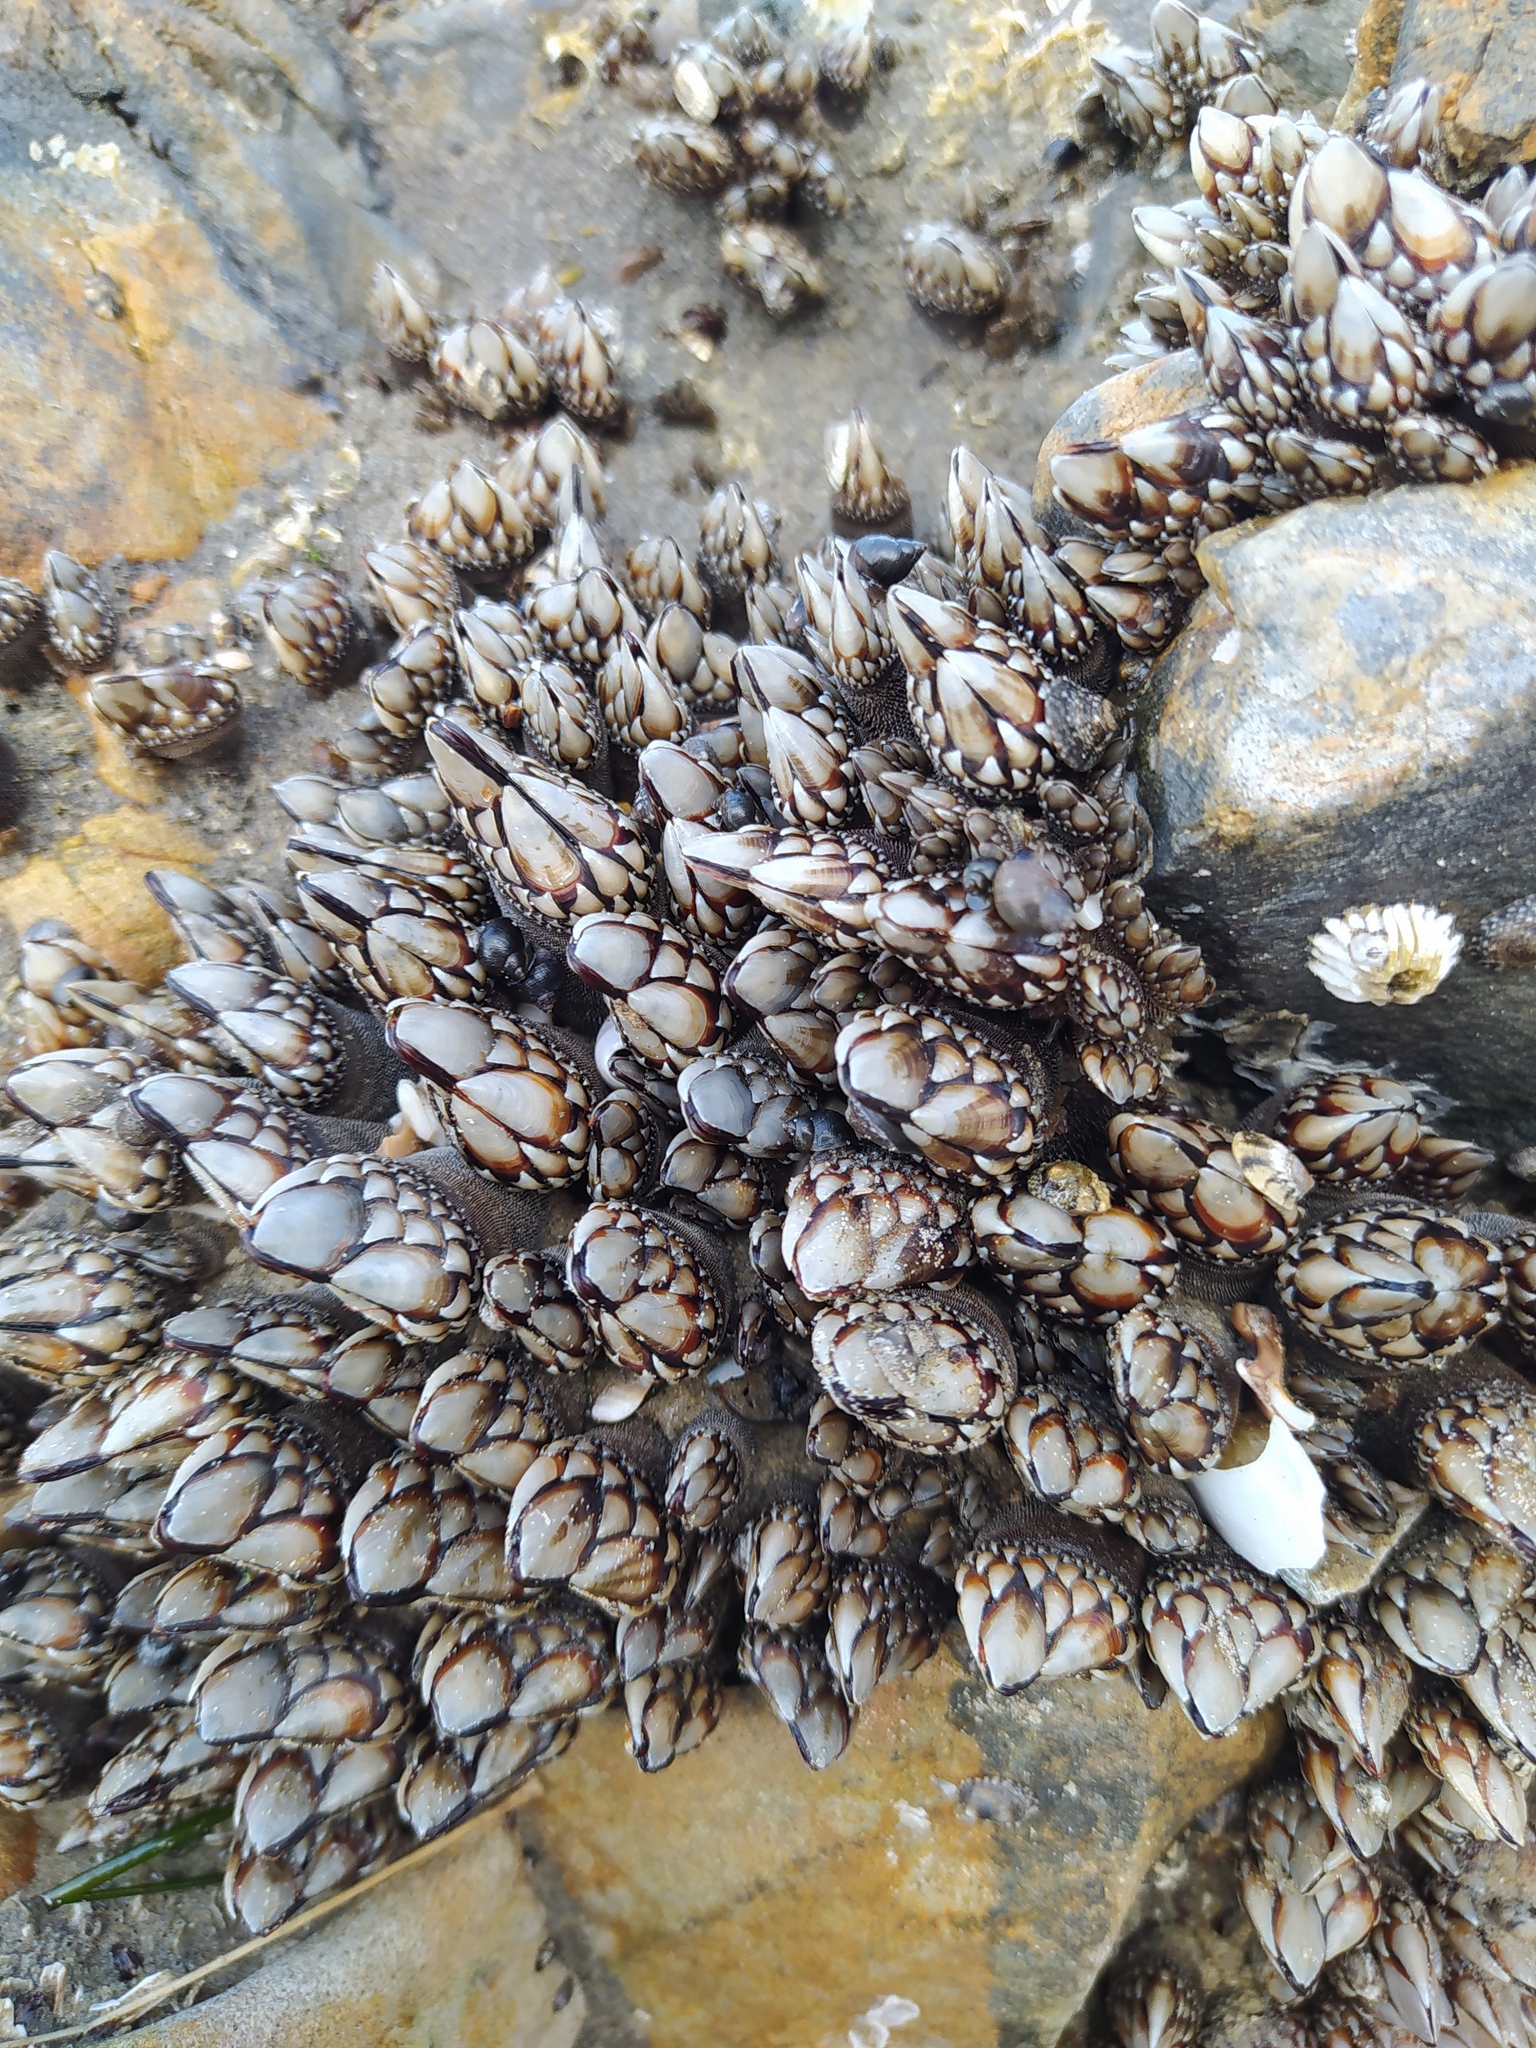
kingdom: Animalia
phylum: Arthropoda
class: Maxillopoda
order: Pedunculata
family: Pollicipedidae
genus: Pollicipes
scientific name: Pollicipes polymerus
